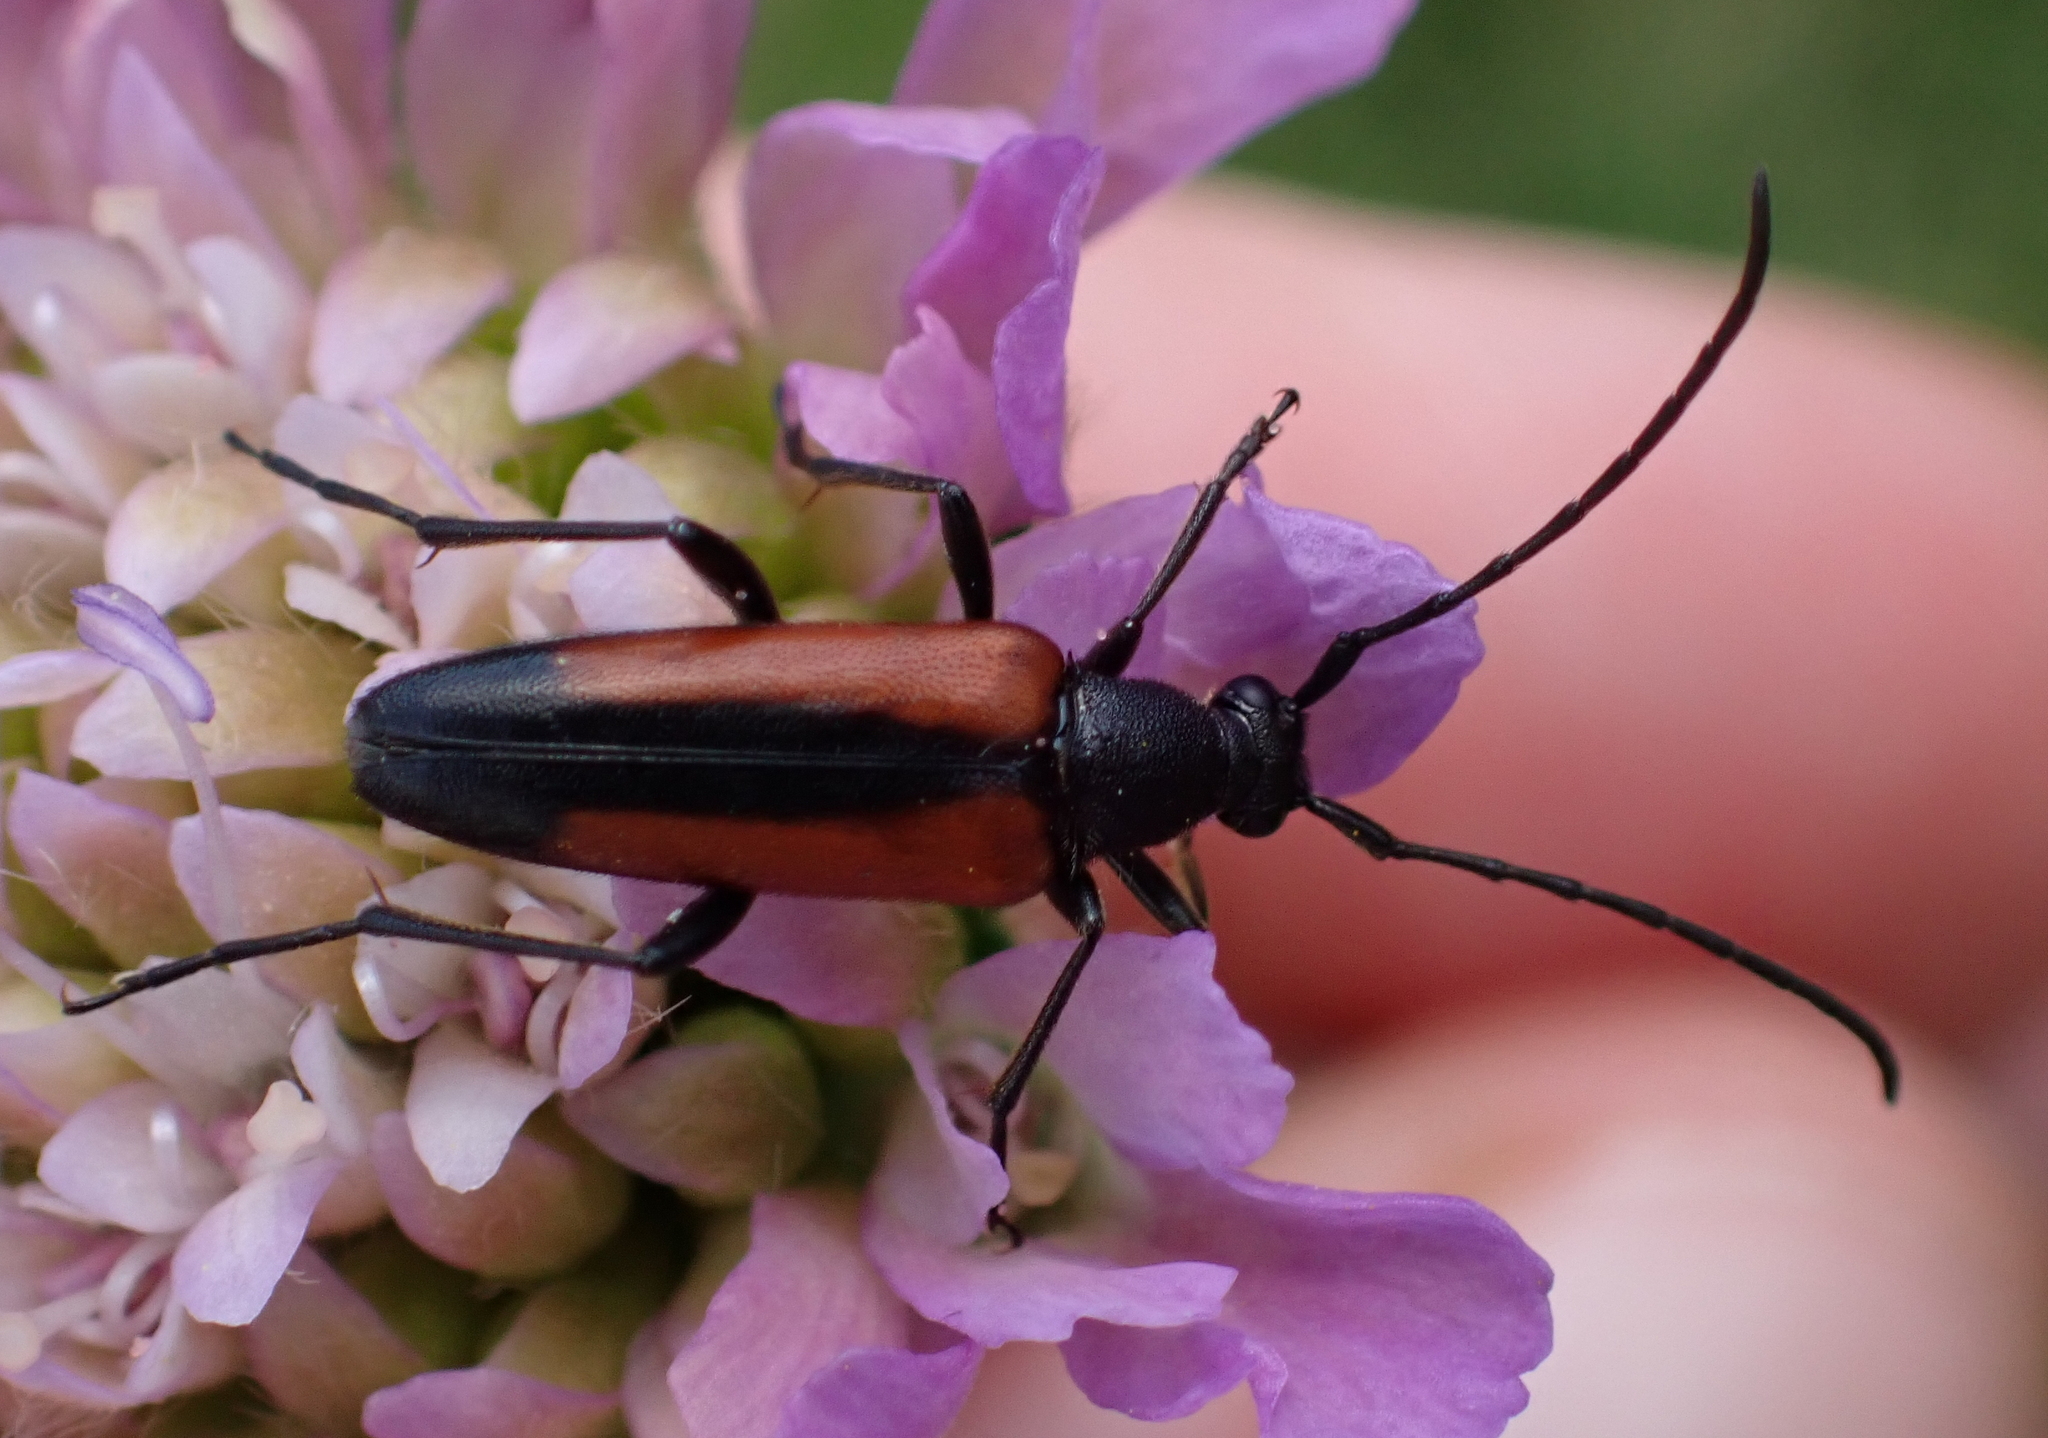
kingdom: Animalia
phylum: Arthropoda
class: Insecta
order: Coleoptera
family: Cerambycidae
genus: Stenurella
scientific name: Stenurella melanura
